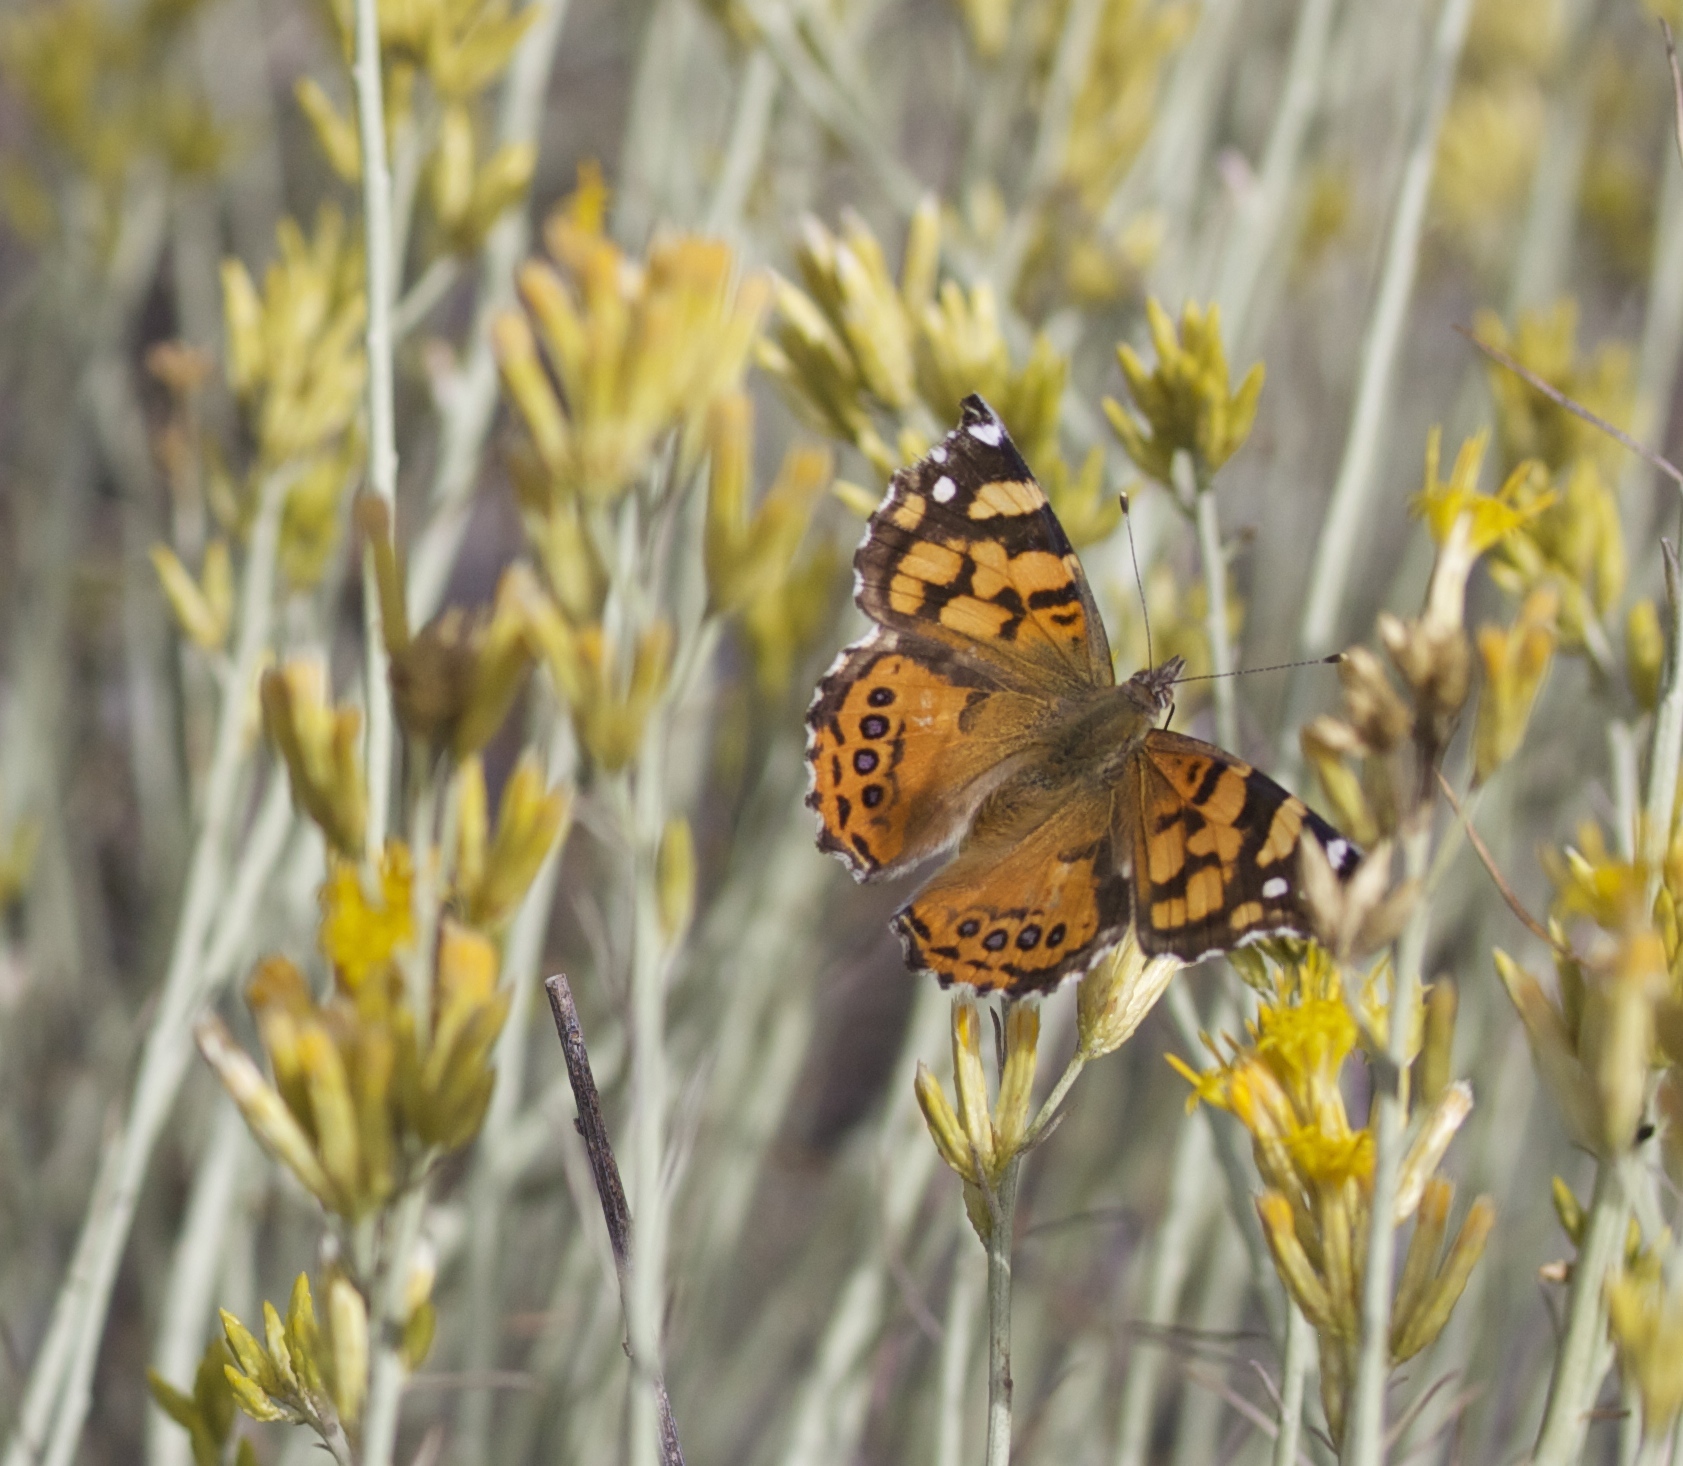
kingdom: Animalia
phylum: Arthropoda
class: Insecta
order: Lepidoptera
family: Nymphalidae
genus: Vanessa
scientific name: Vanessa annabella
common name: West coast lady
